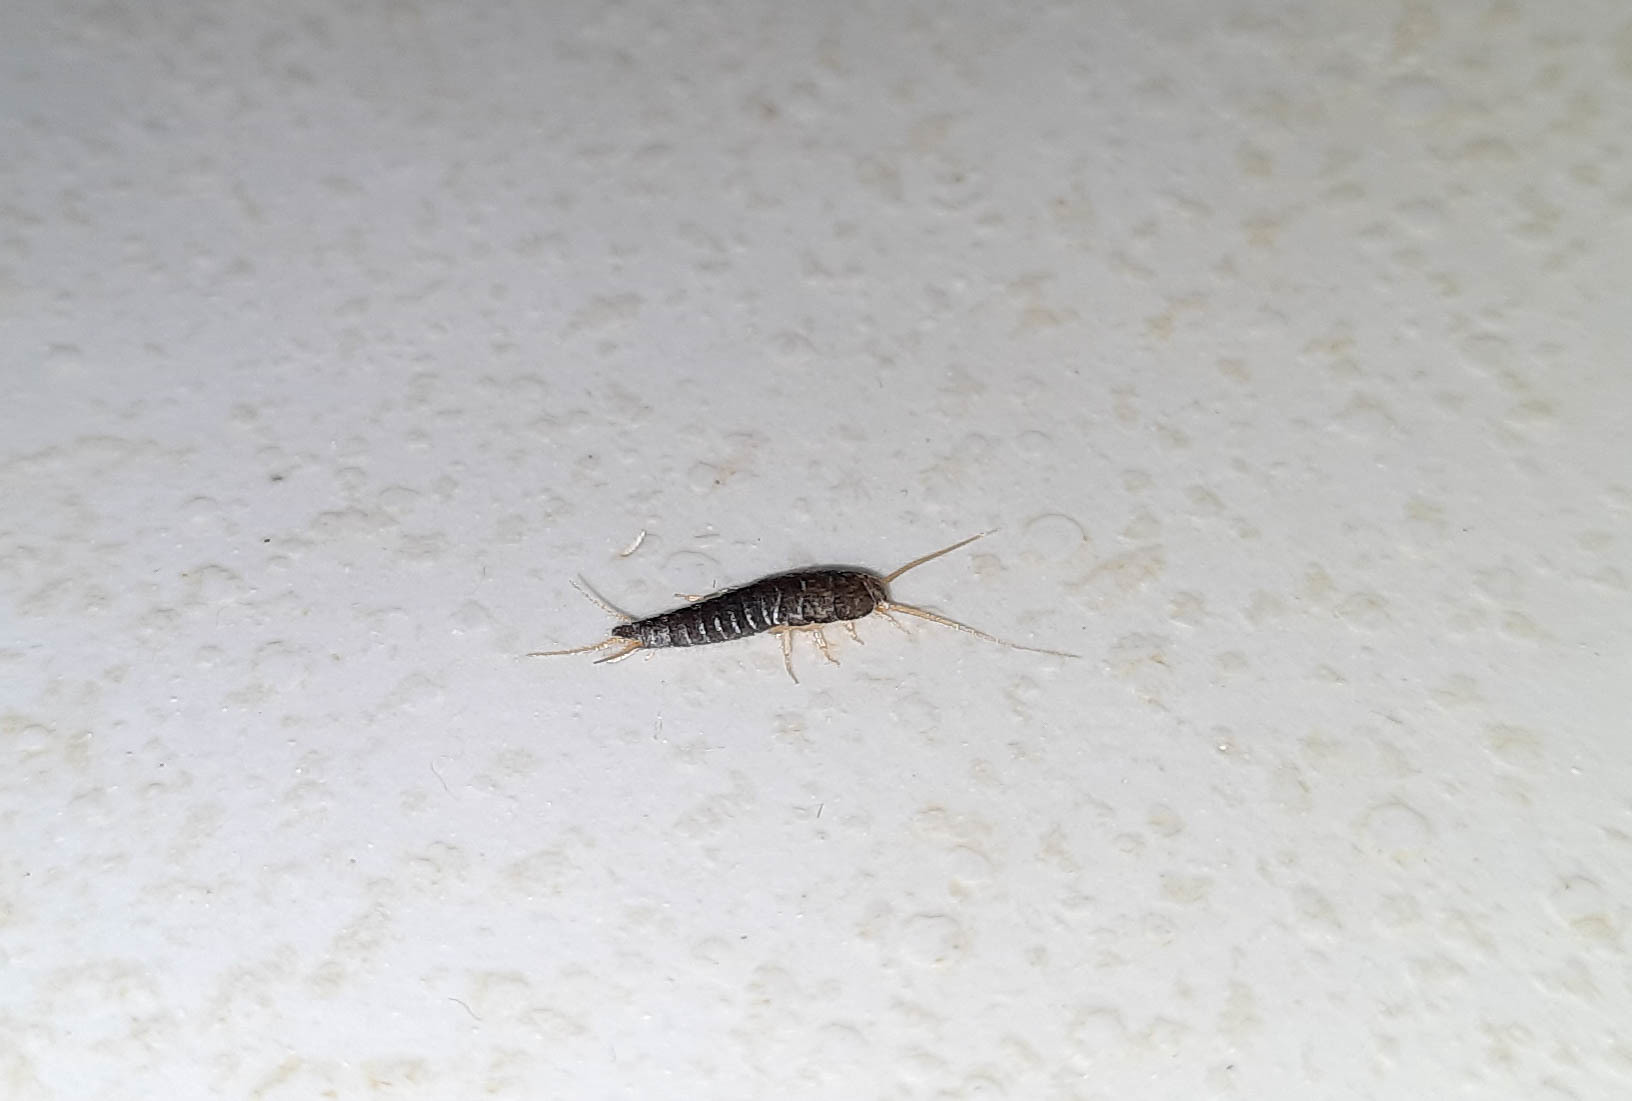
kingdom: Animalia
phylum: Arthropoda
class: Insecta
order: Zygentoma
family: Lepismatidae
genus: Lepisma
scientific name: Lepisma saccharinum
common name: Silverfish
